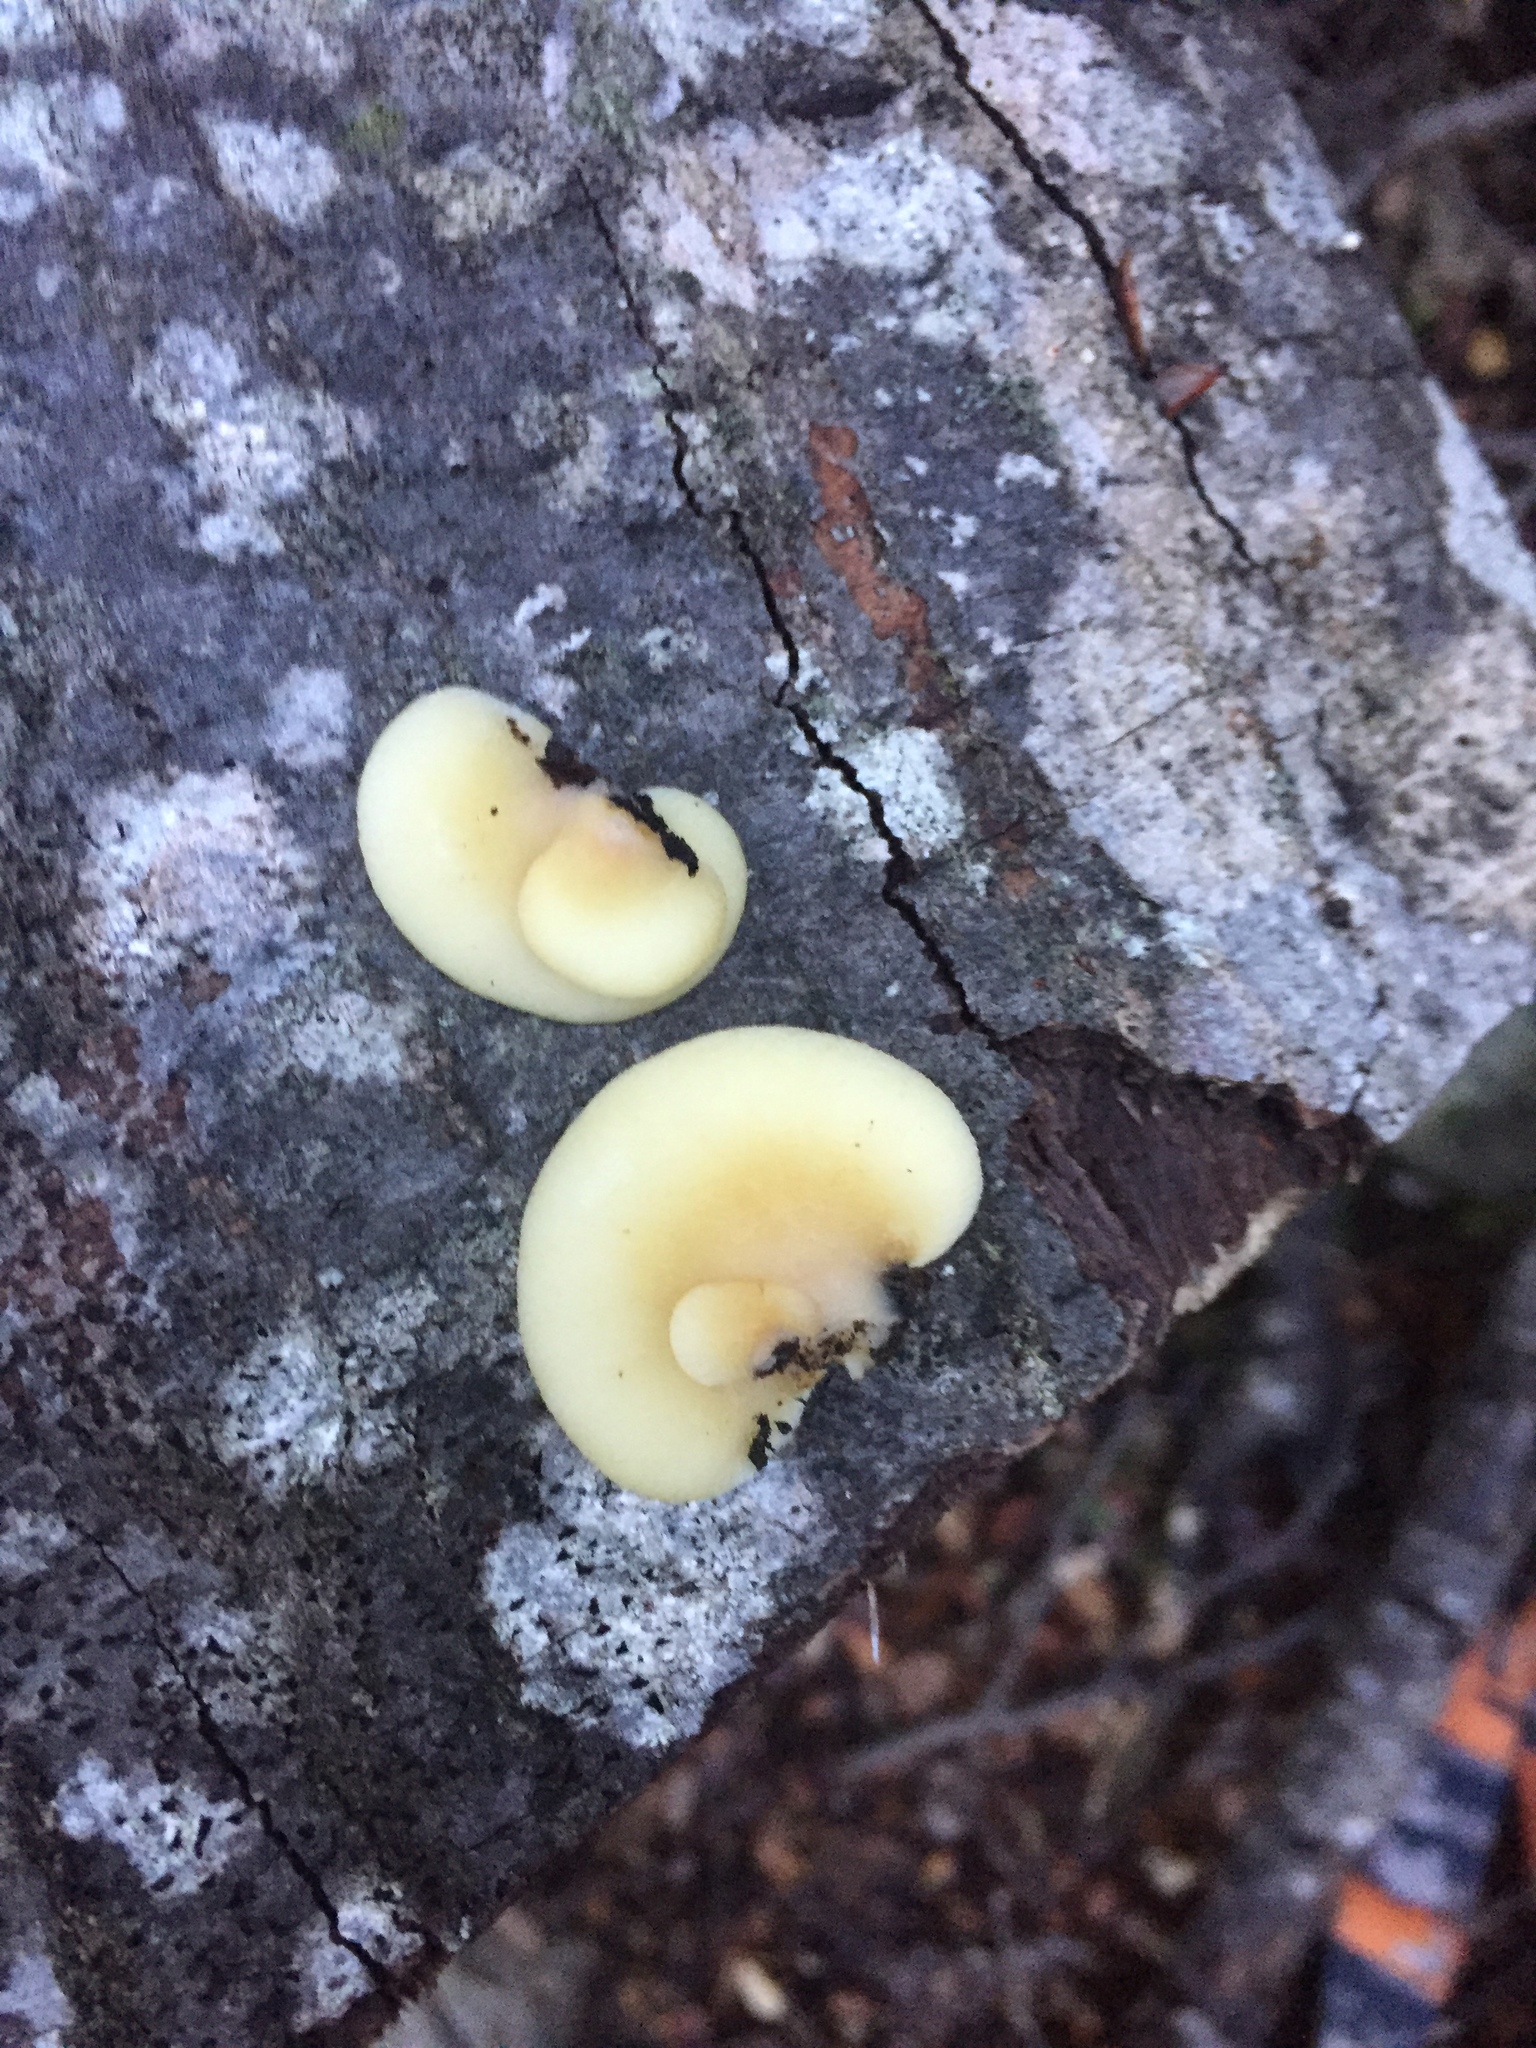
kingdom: Fungi
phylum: Basidiomycota
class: Agaricomycetes
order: Agaricales
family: Crepidotaceae
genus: Crepidotus
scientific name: Crepidotus praecipuus
